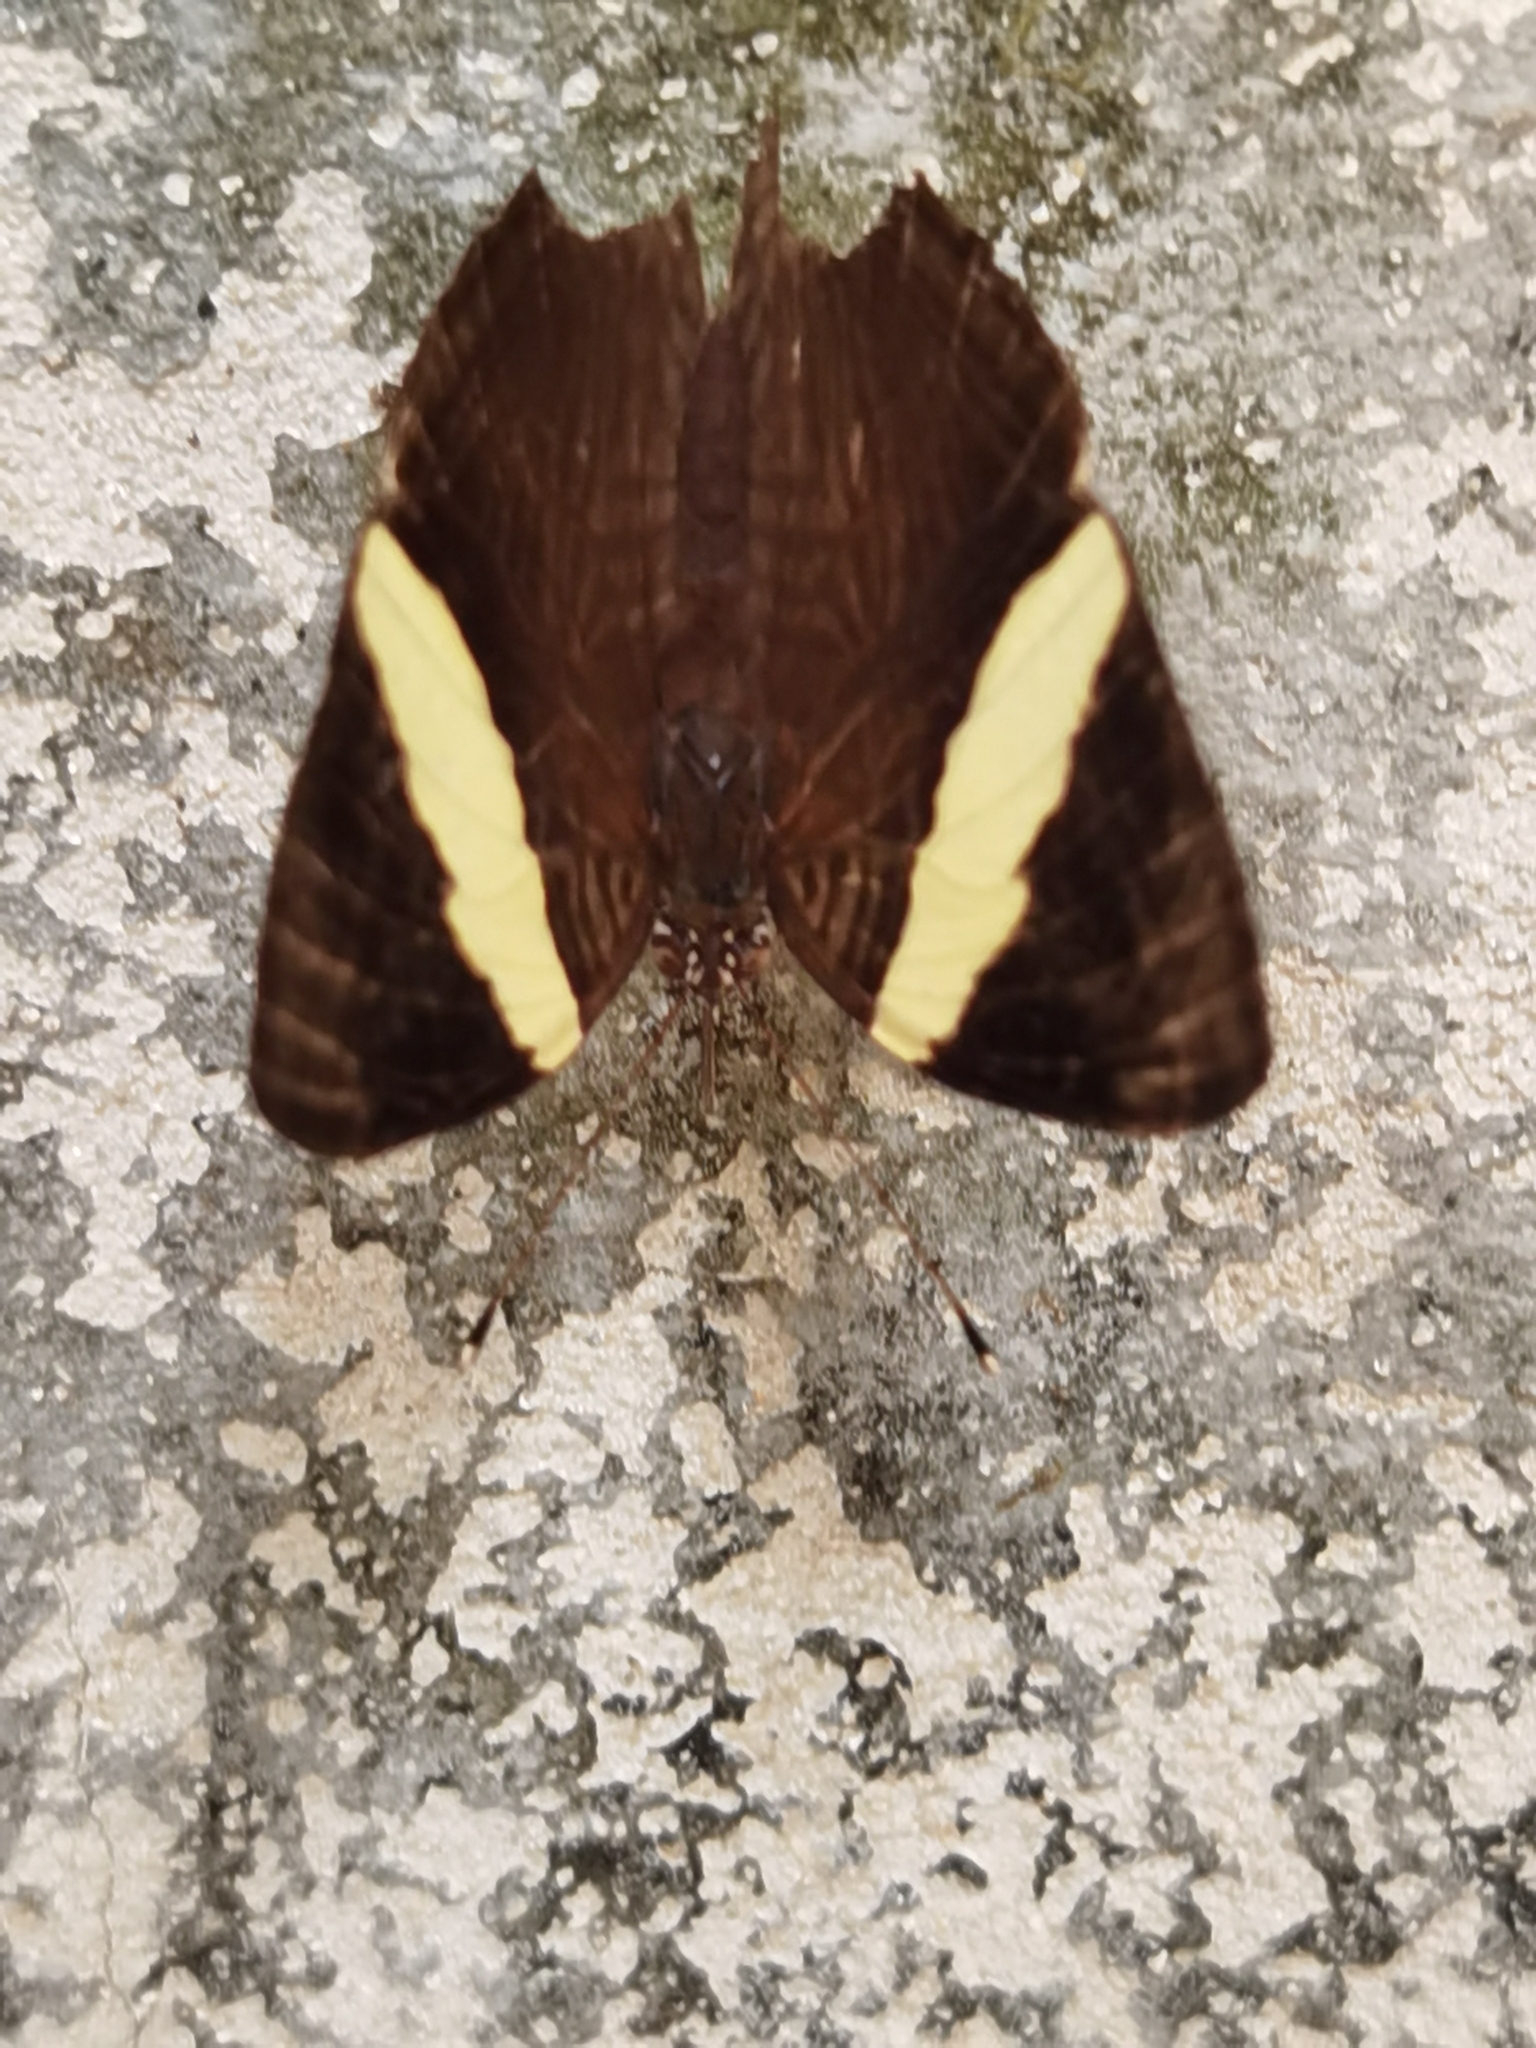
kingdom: Animalia
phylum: Arthropoda
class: Insecta
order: Lepidoptera
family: Nymphalidae
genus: Colobura
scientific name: Colobura dirce
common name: Dirce beauty
